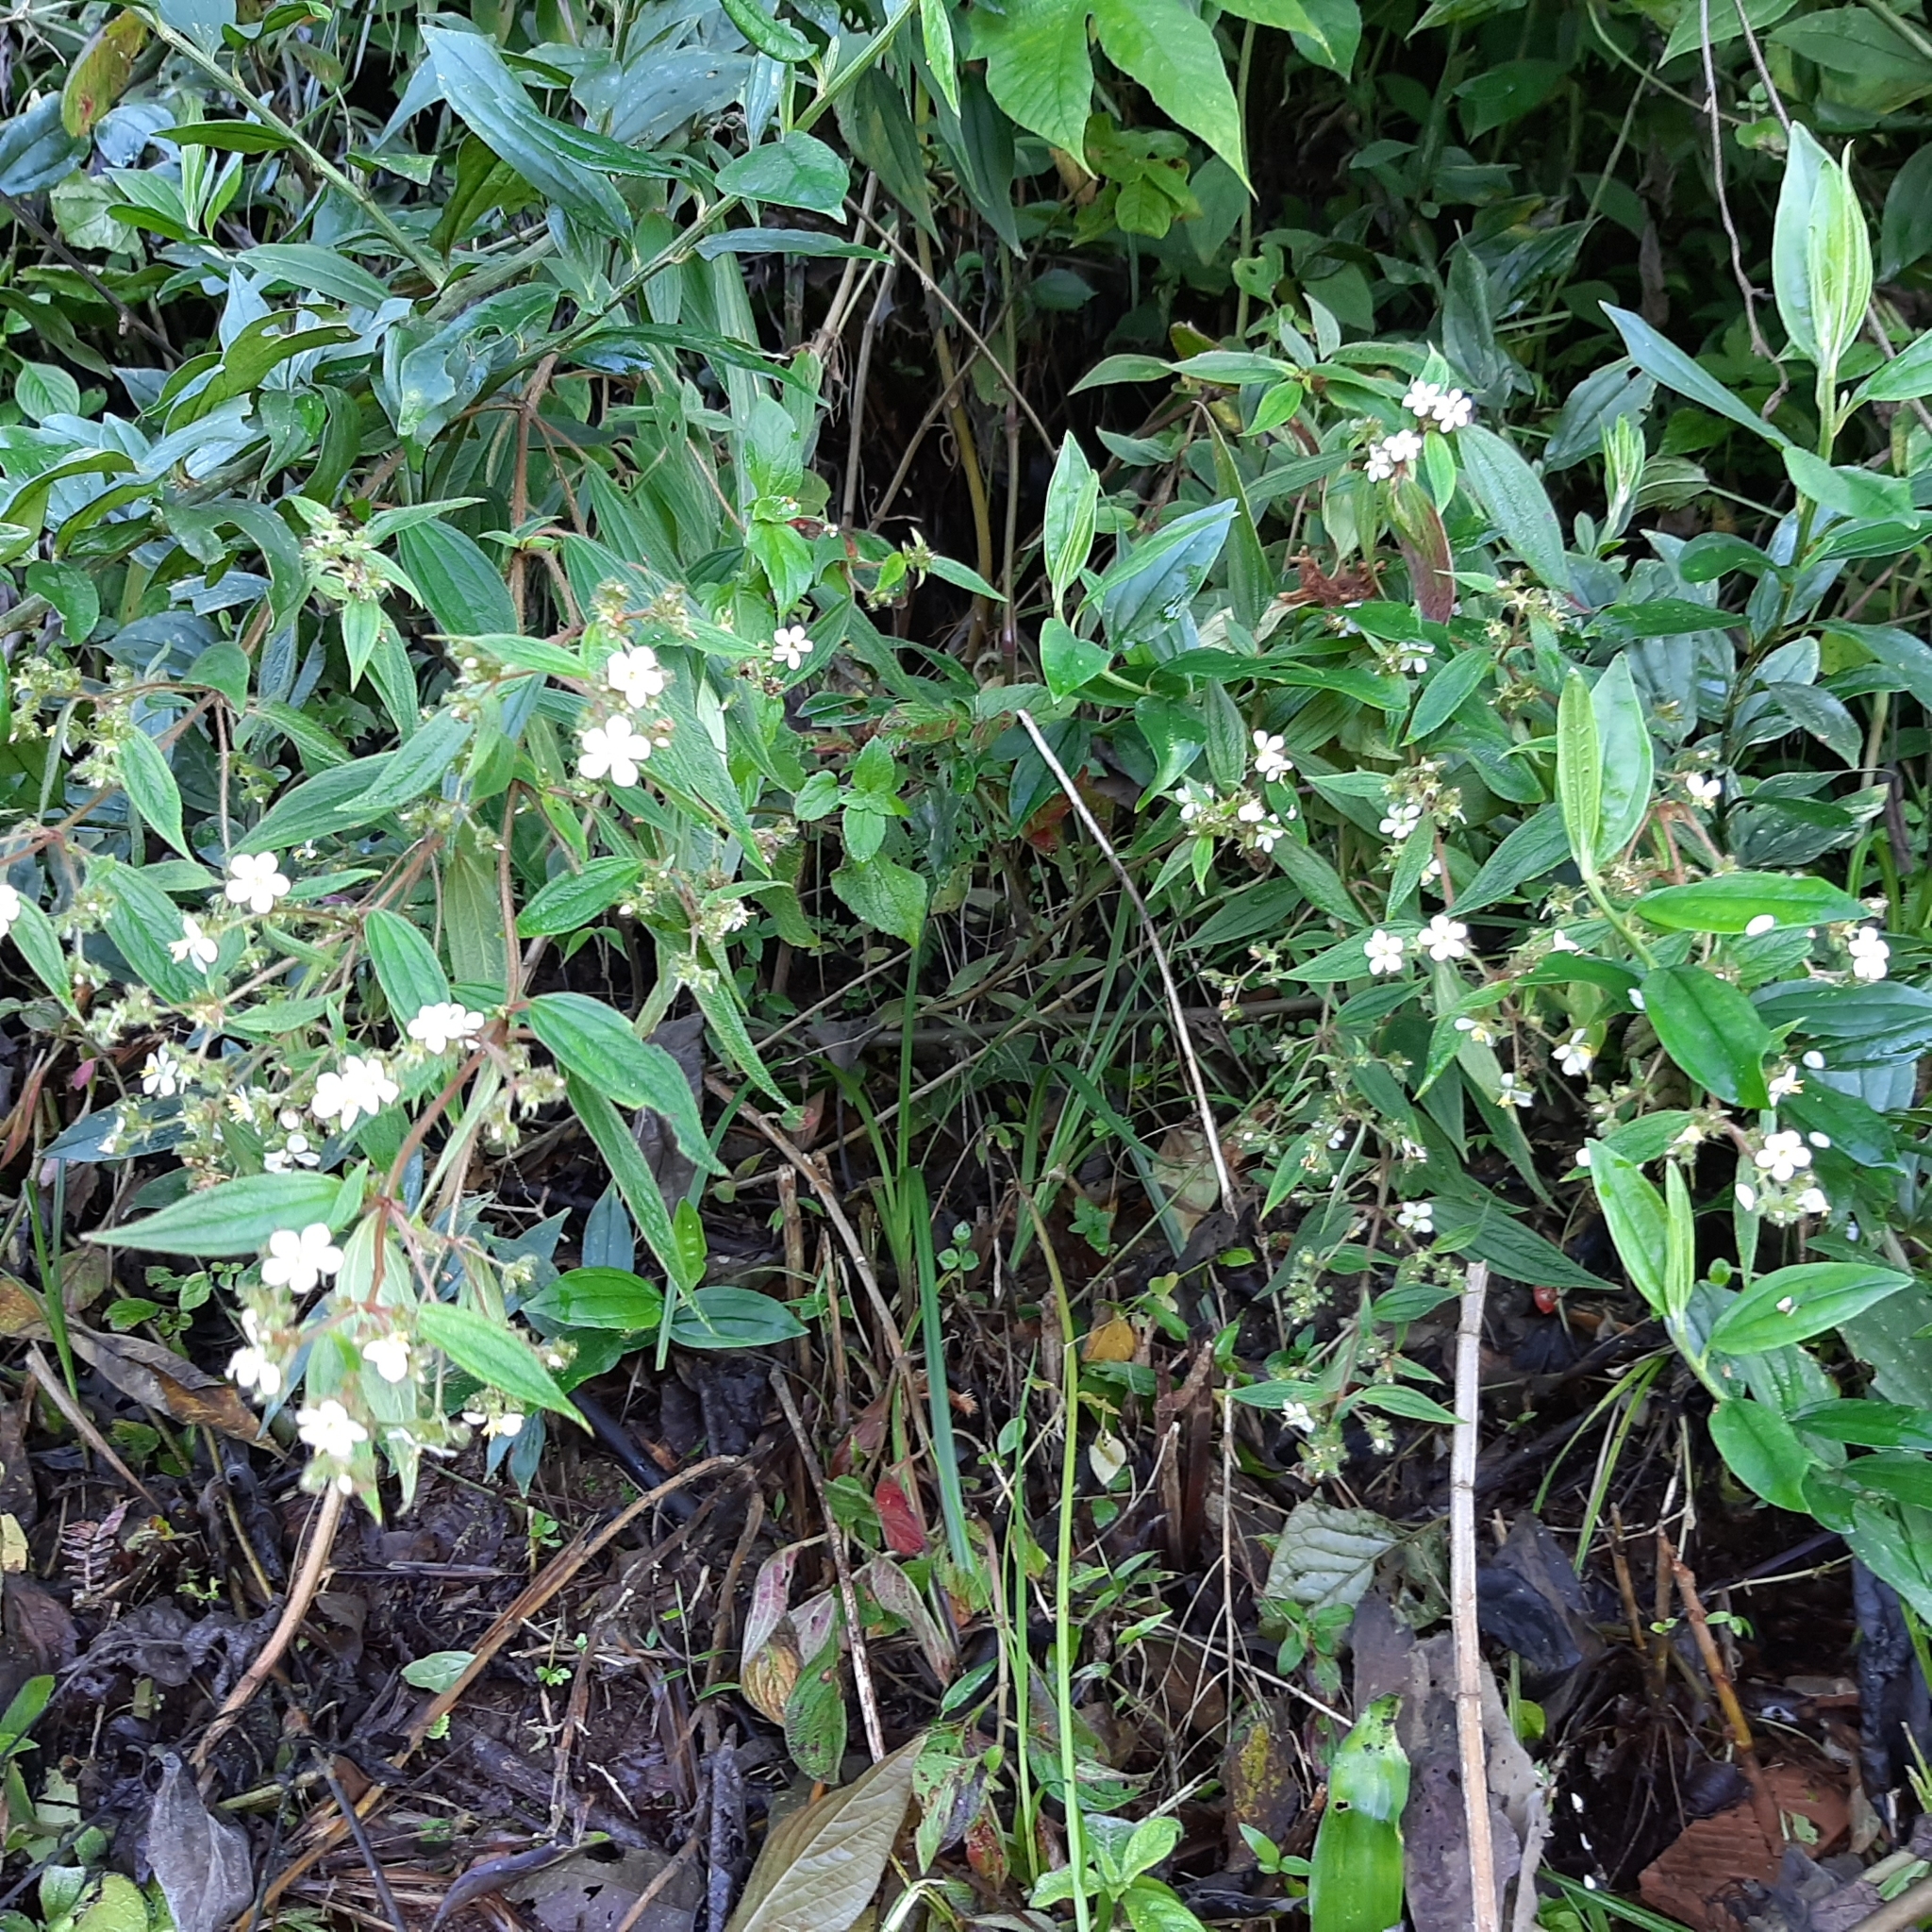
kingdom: Plantae
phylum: Tracheophyta
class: Magnoliopsida
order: Myrtales
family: Melastomataceae
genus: Chaetogastra
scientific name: Chaetogastra longifolia
